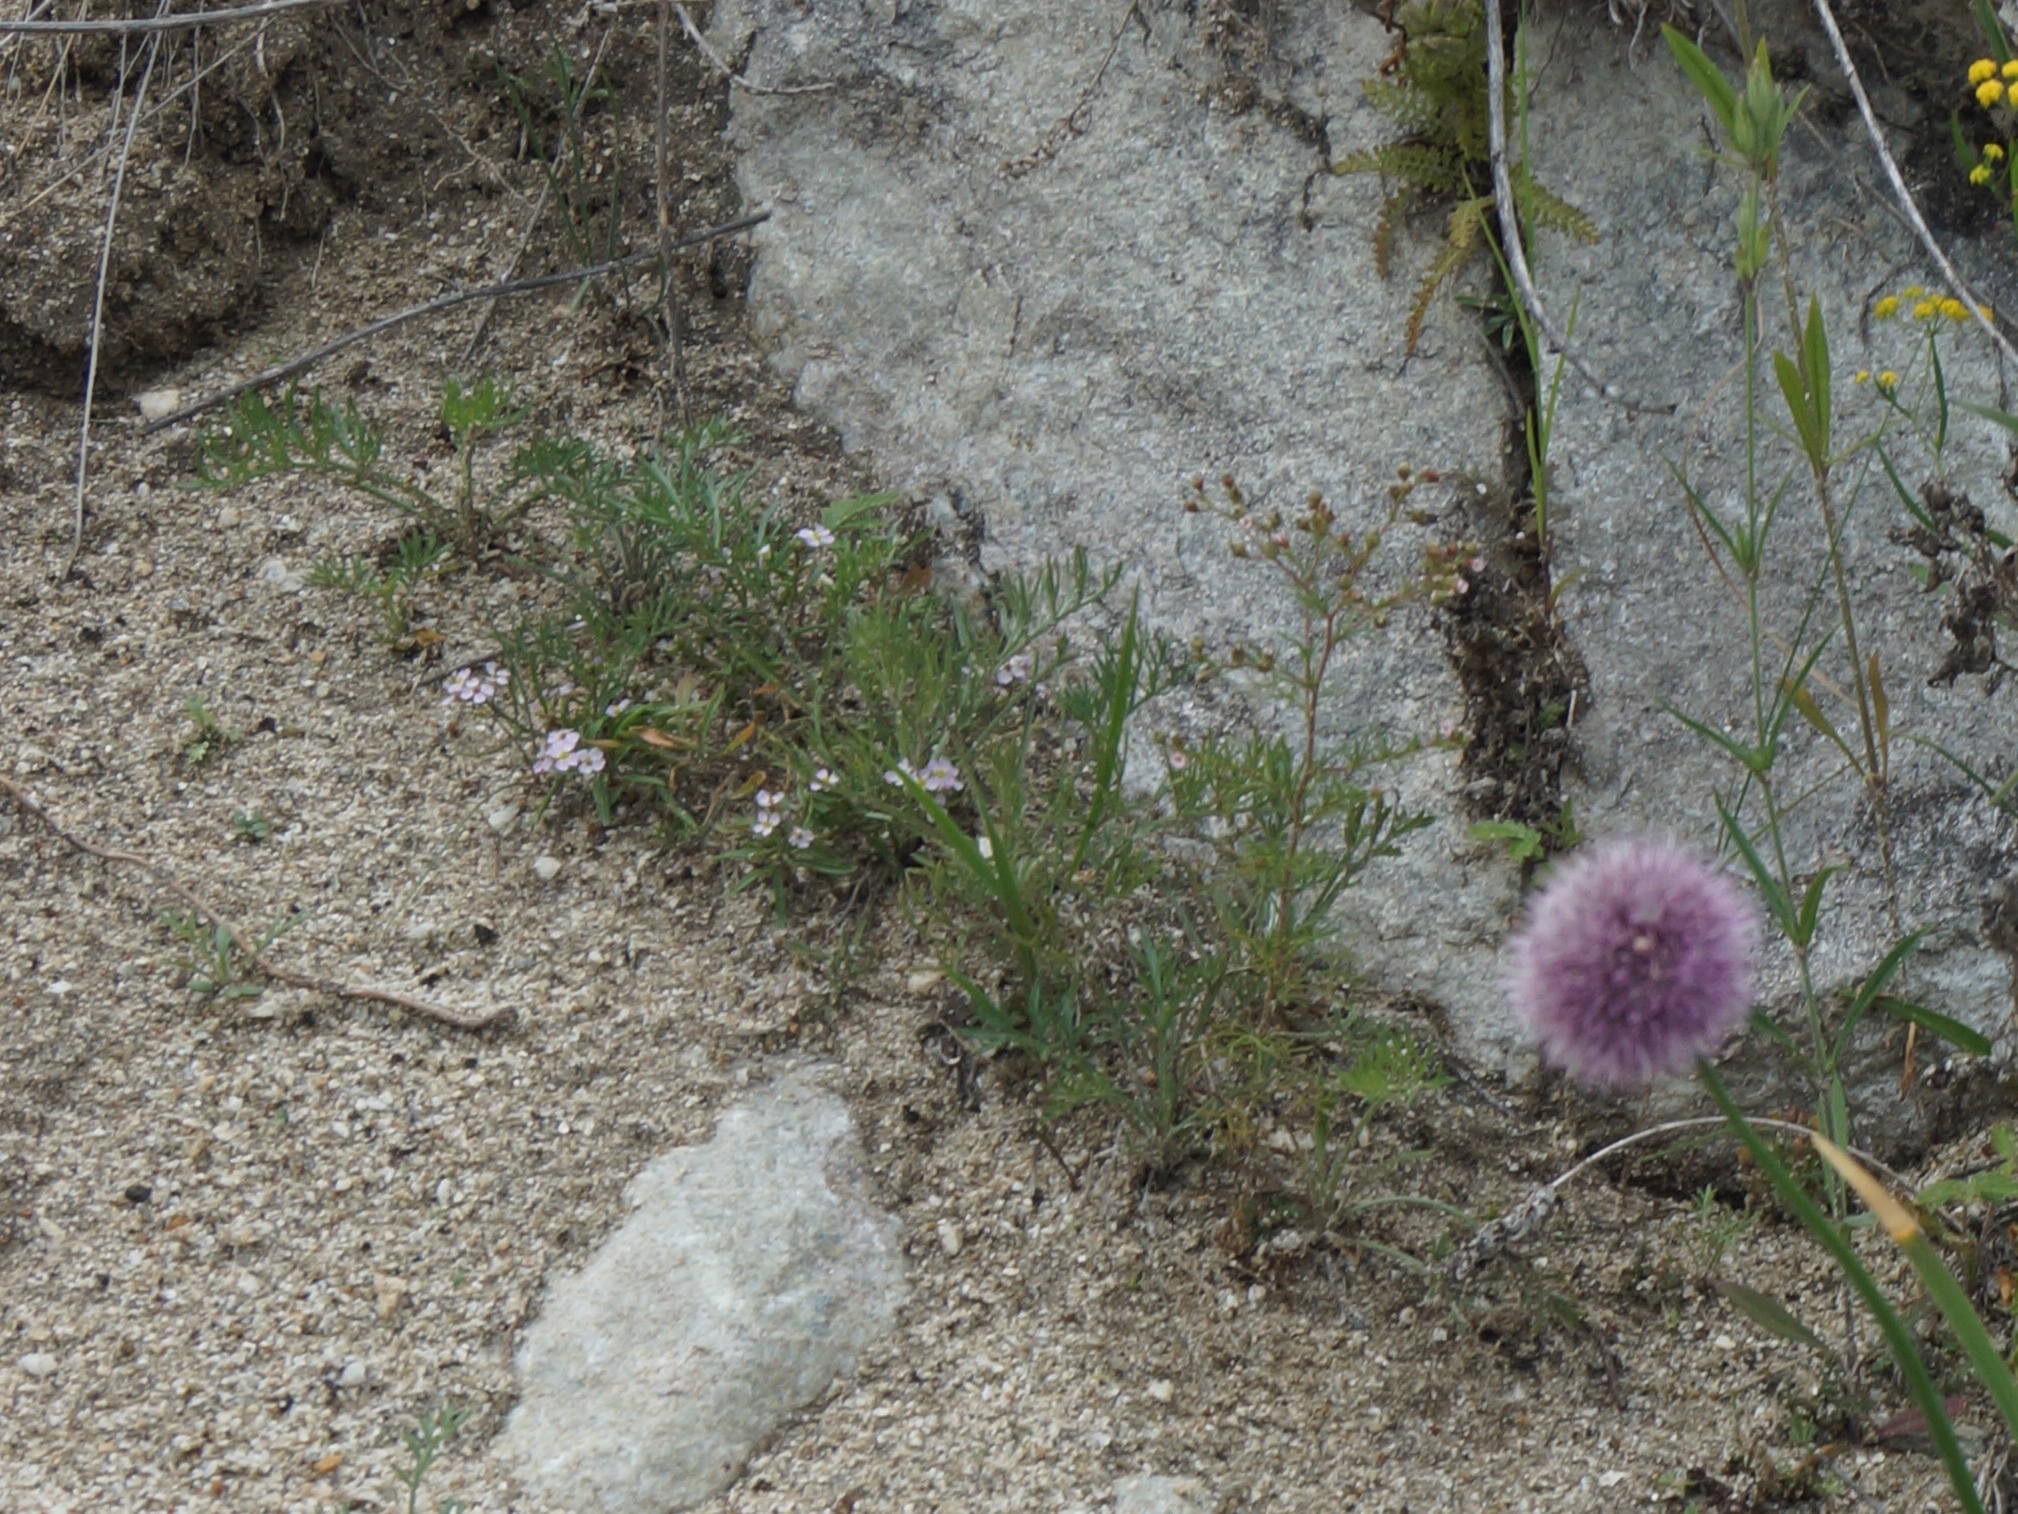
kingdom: Plantae
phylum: Tracheophyta
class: Magnoliopsida
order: Rosales
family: Rosaceae
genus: Chamaerhodos
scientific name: Chamaerhodos erecta
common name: American chamaerhodos
